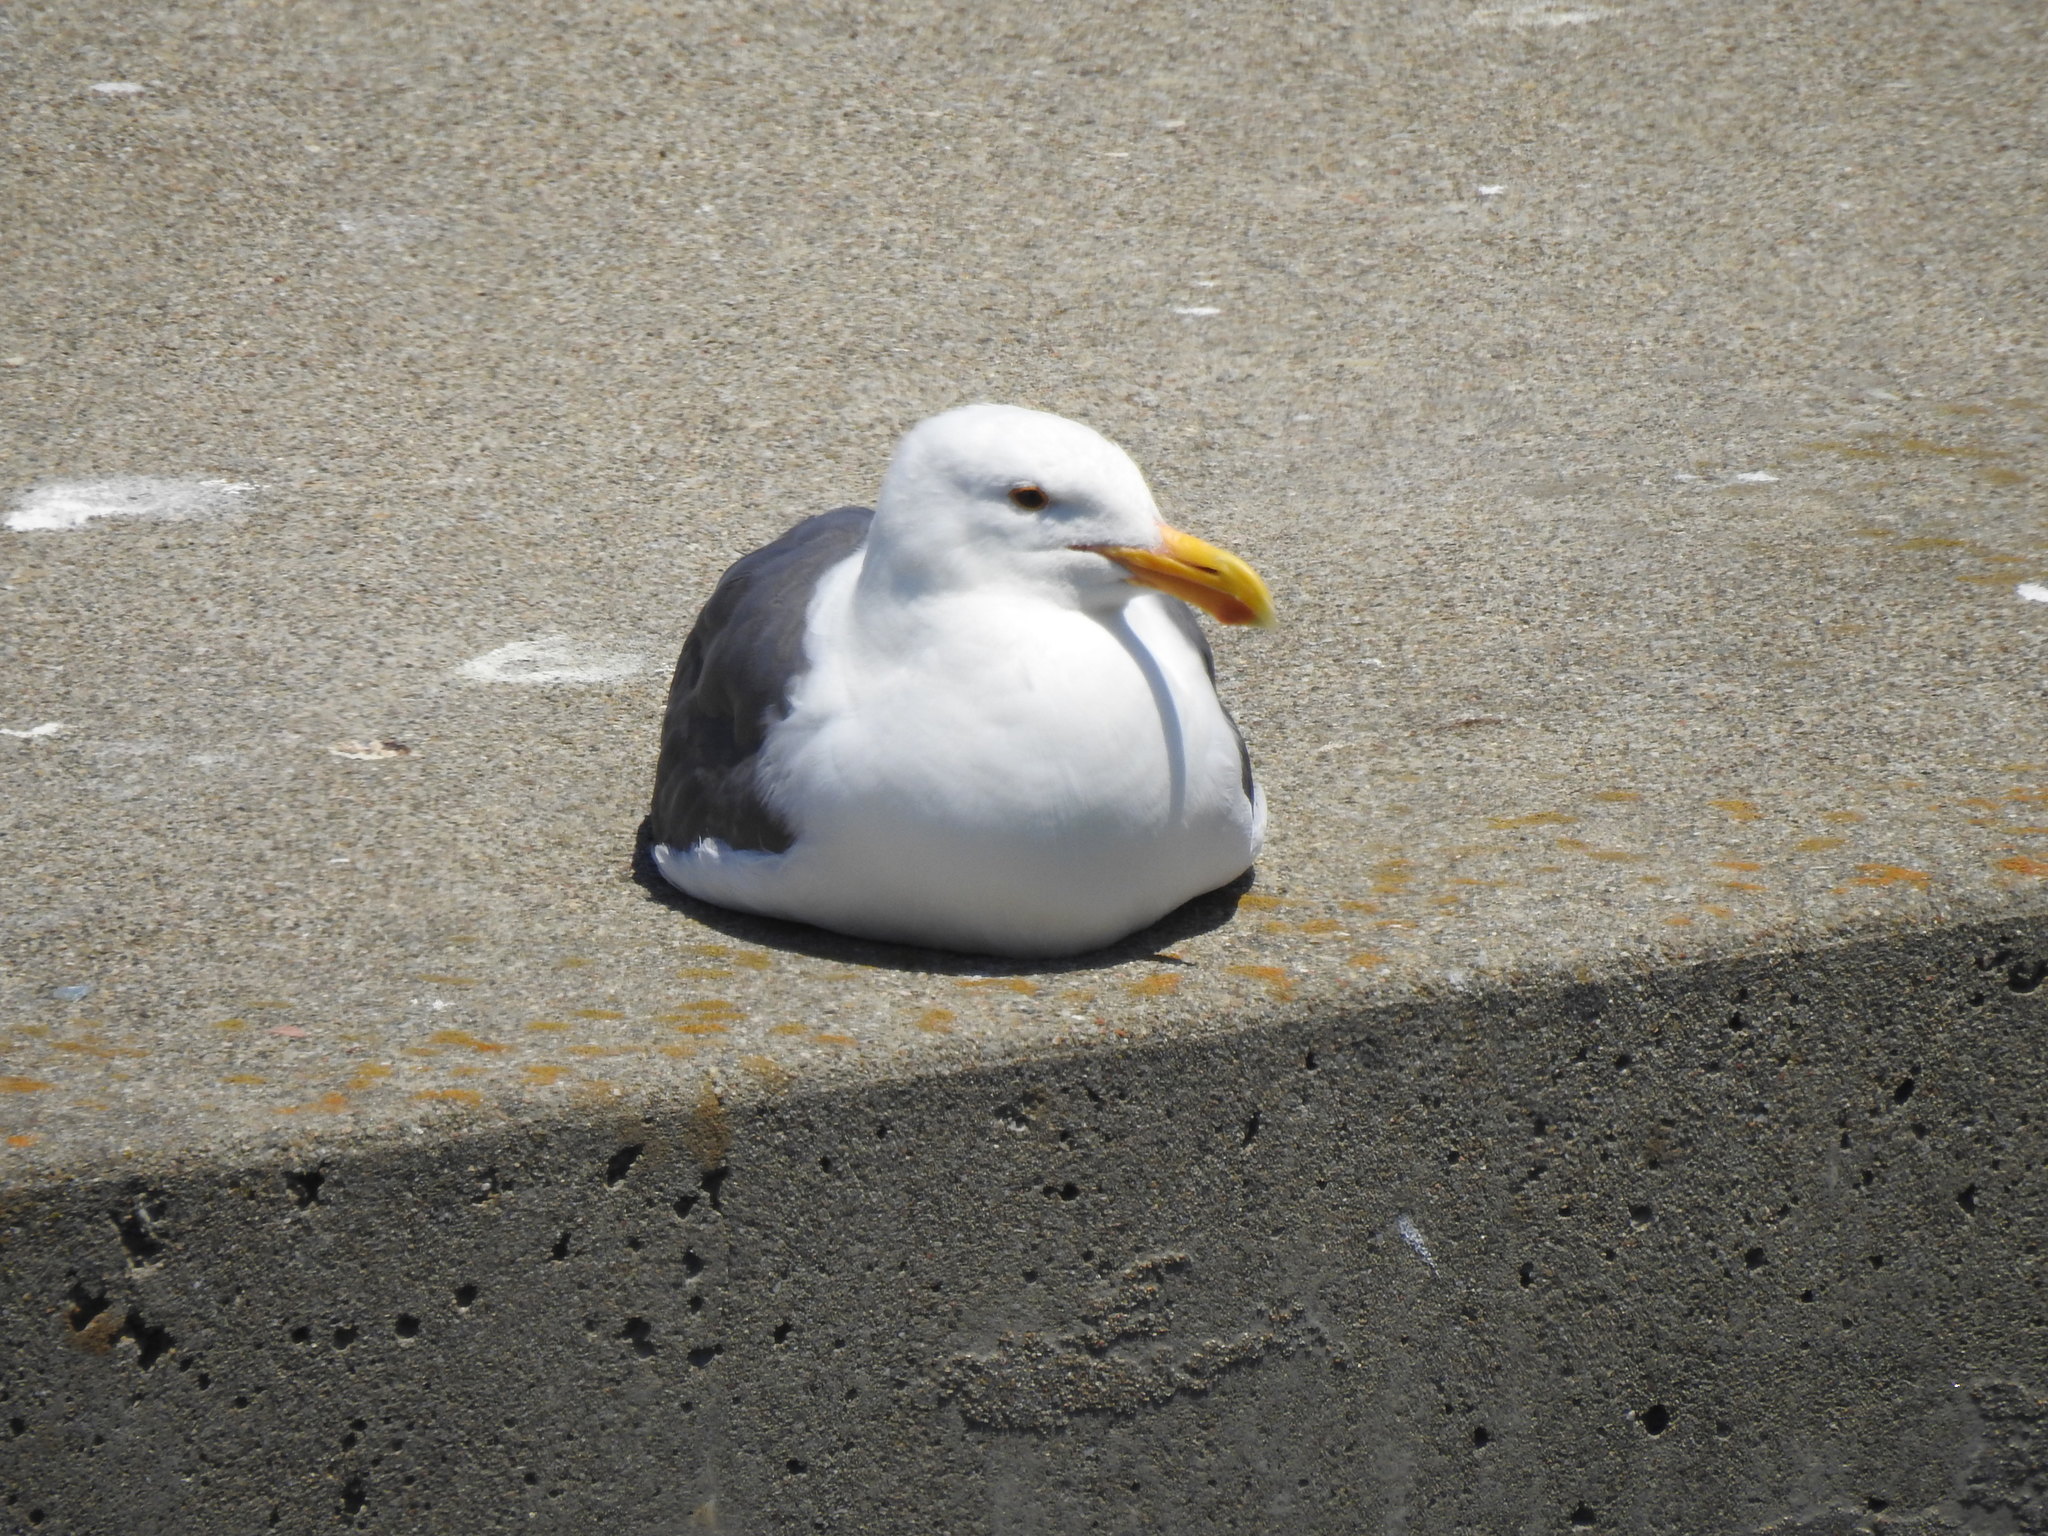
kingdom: Animalia
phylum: Chordata
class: Aves
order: Charadriiformes
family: Laridae
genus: Larus
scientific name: Larus occidentalis
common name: Western gull
